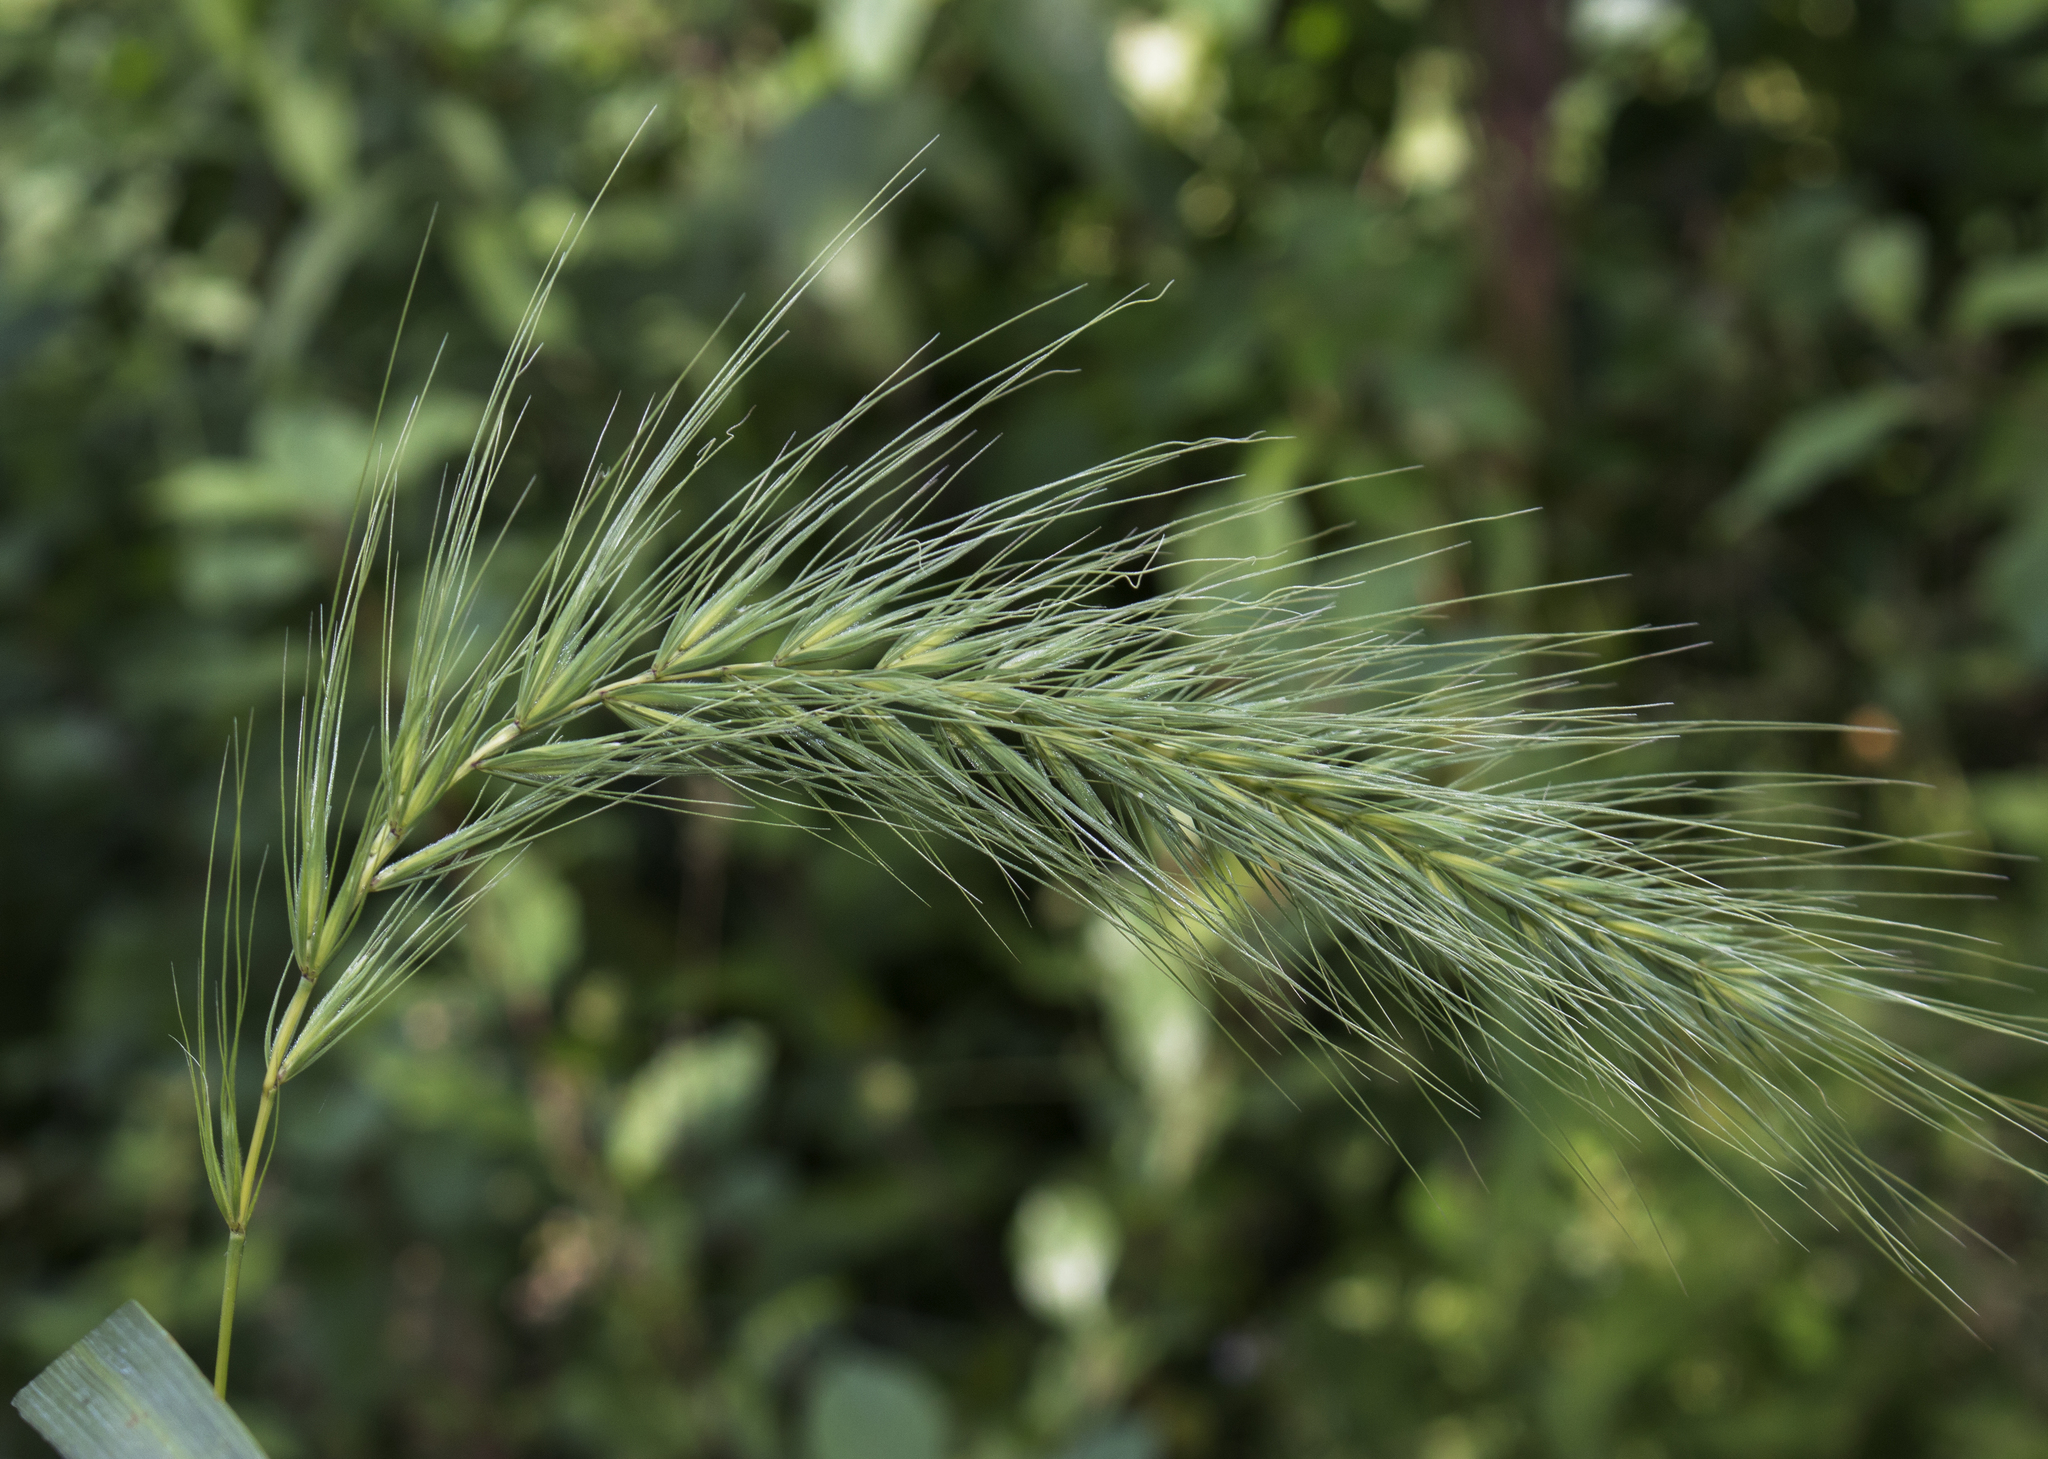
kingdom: Plantae
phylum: Tracheophyta
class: Liliopsida
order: Poales
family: Poaceae
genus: Elymus
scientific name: Elymus canadensis
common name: Canada wild rye
